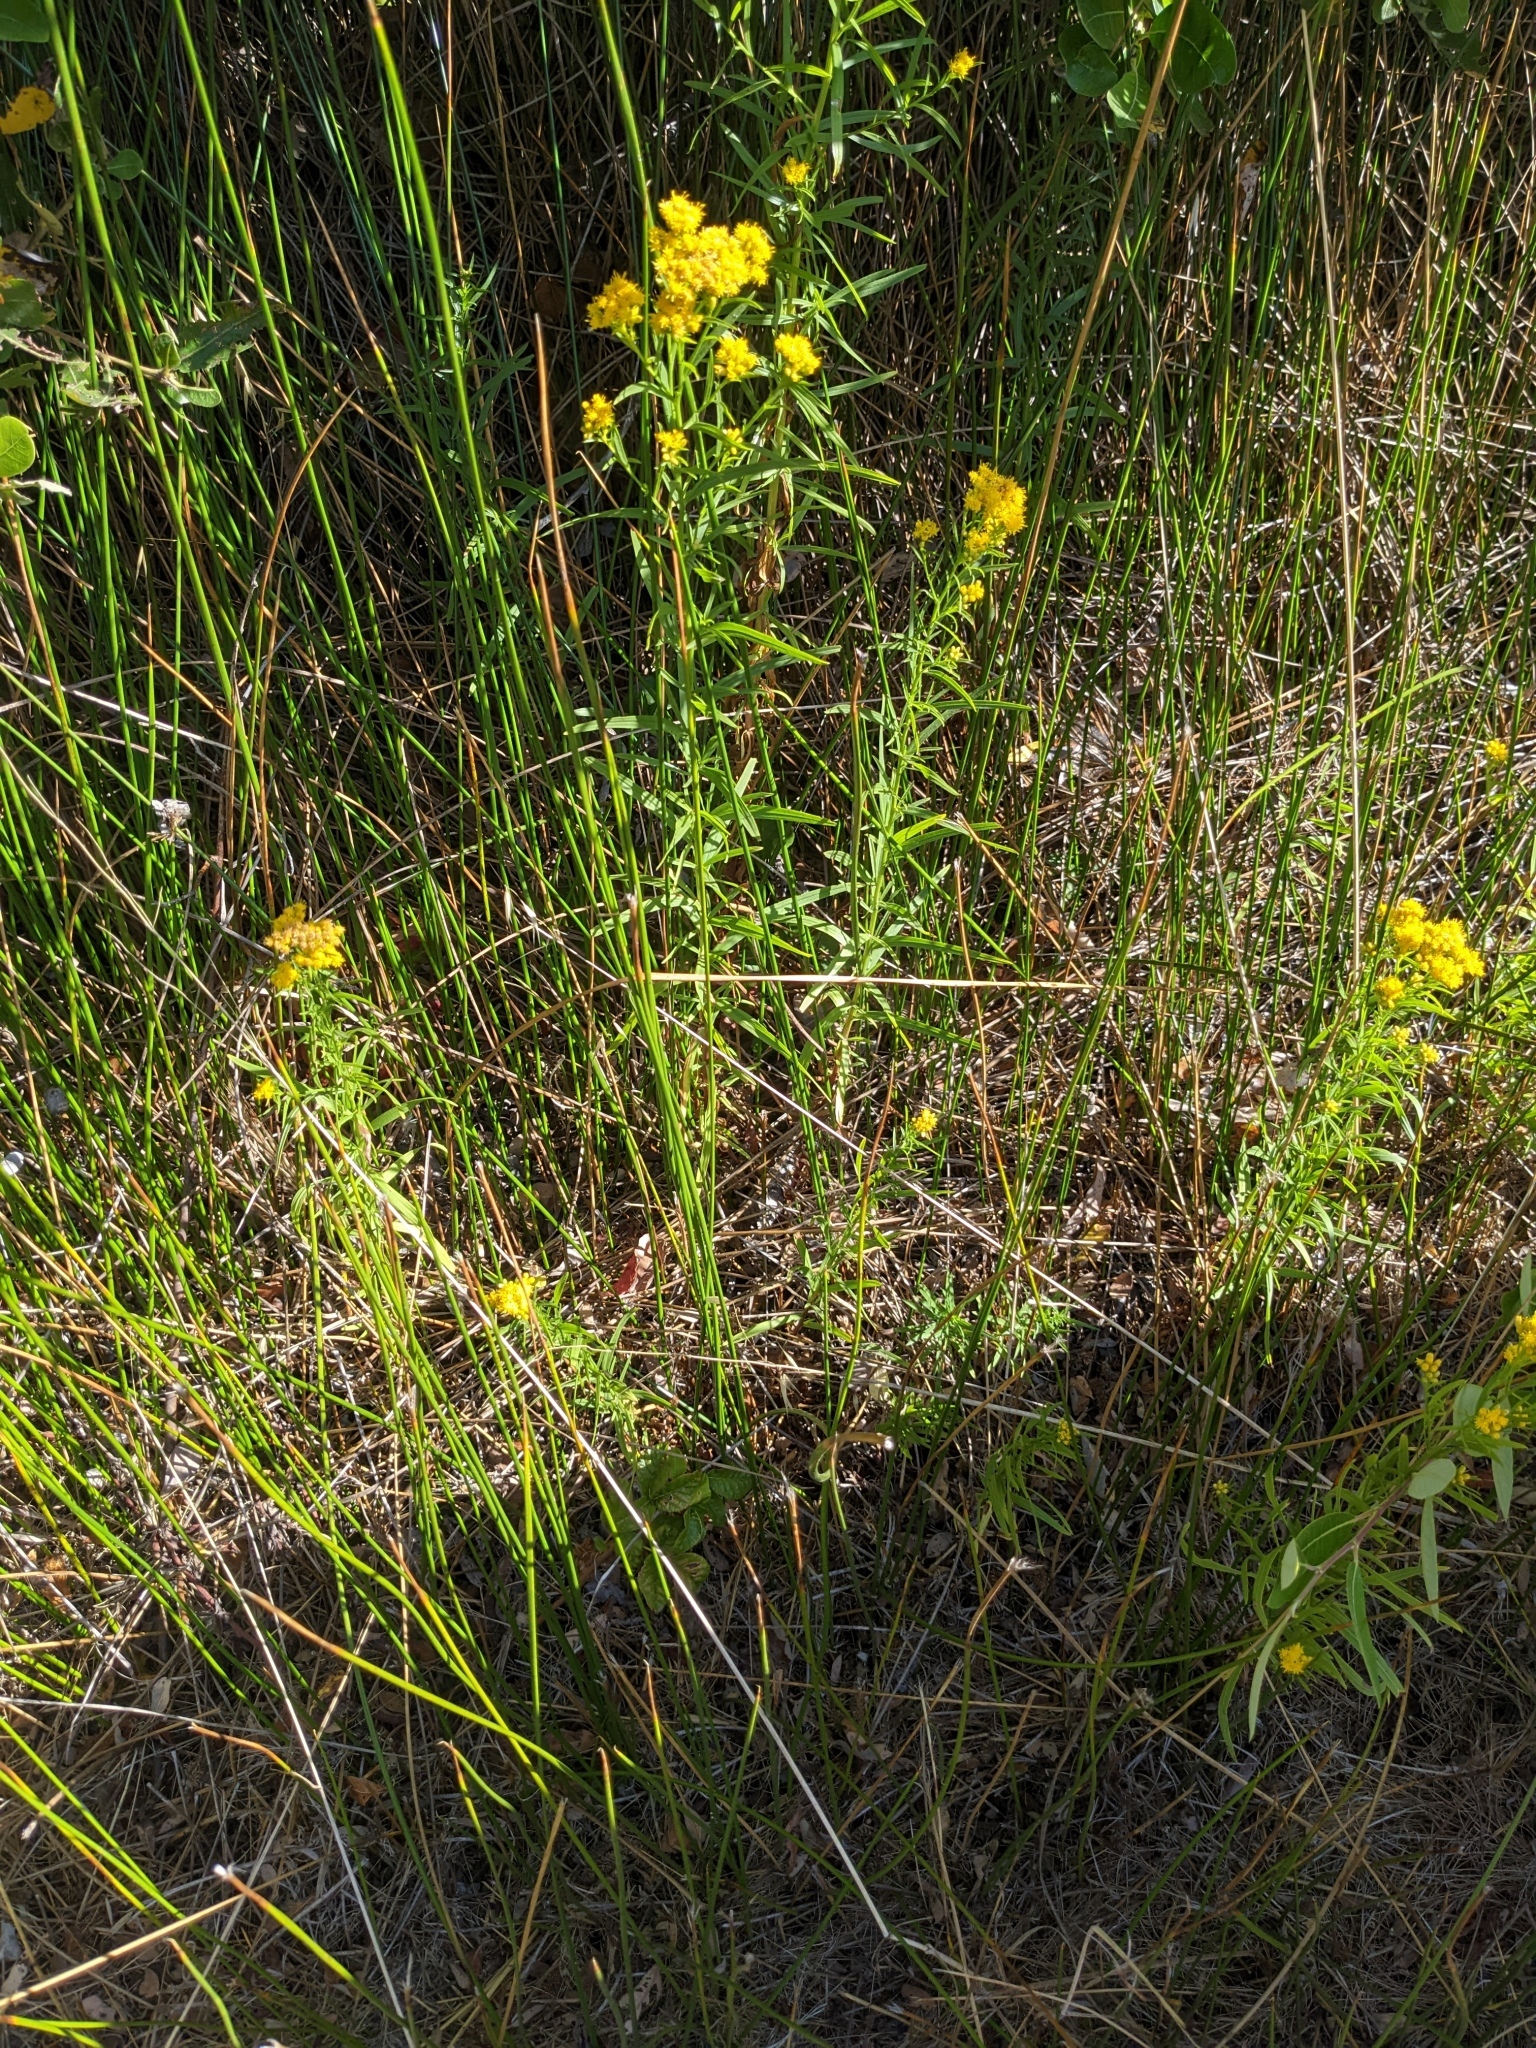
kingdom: Plantae
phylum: Tracheophyta
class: Magnoliopsida
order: Asterales
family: Asteraceae
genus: Euthamia
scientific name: Euthamia occidentalis
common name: Western goldentop
